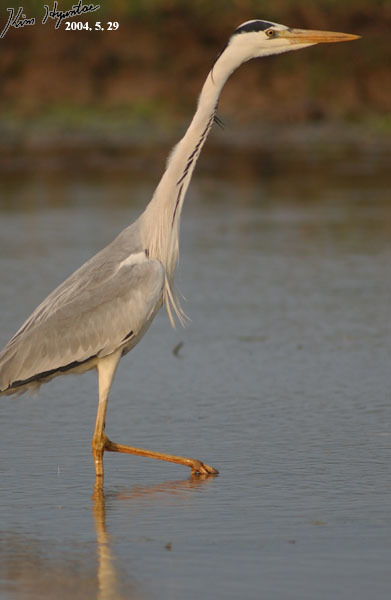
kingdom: Animalia
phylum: Chordata
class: Aves
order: Pelecaniformes
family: Ardeidae
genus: Ardea
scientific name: Ardea cinerea
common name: Grey heron
